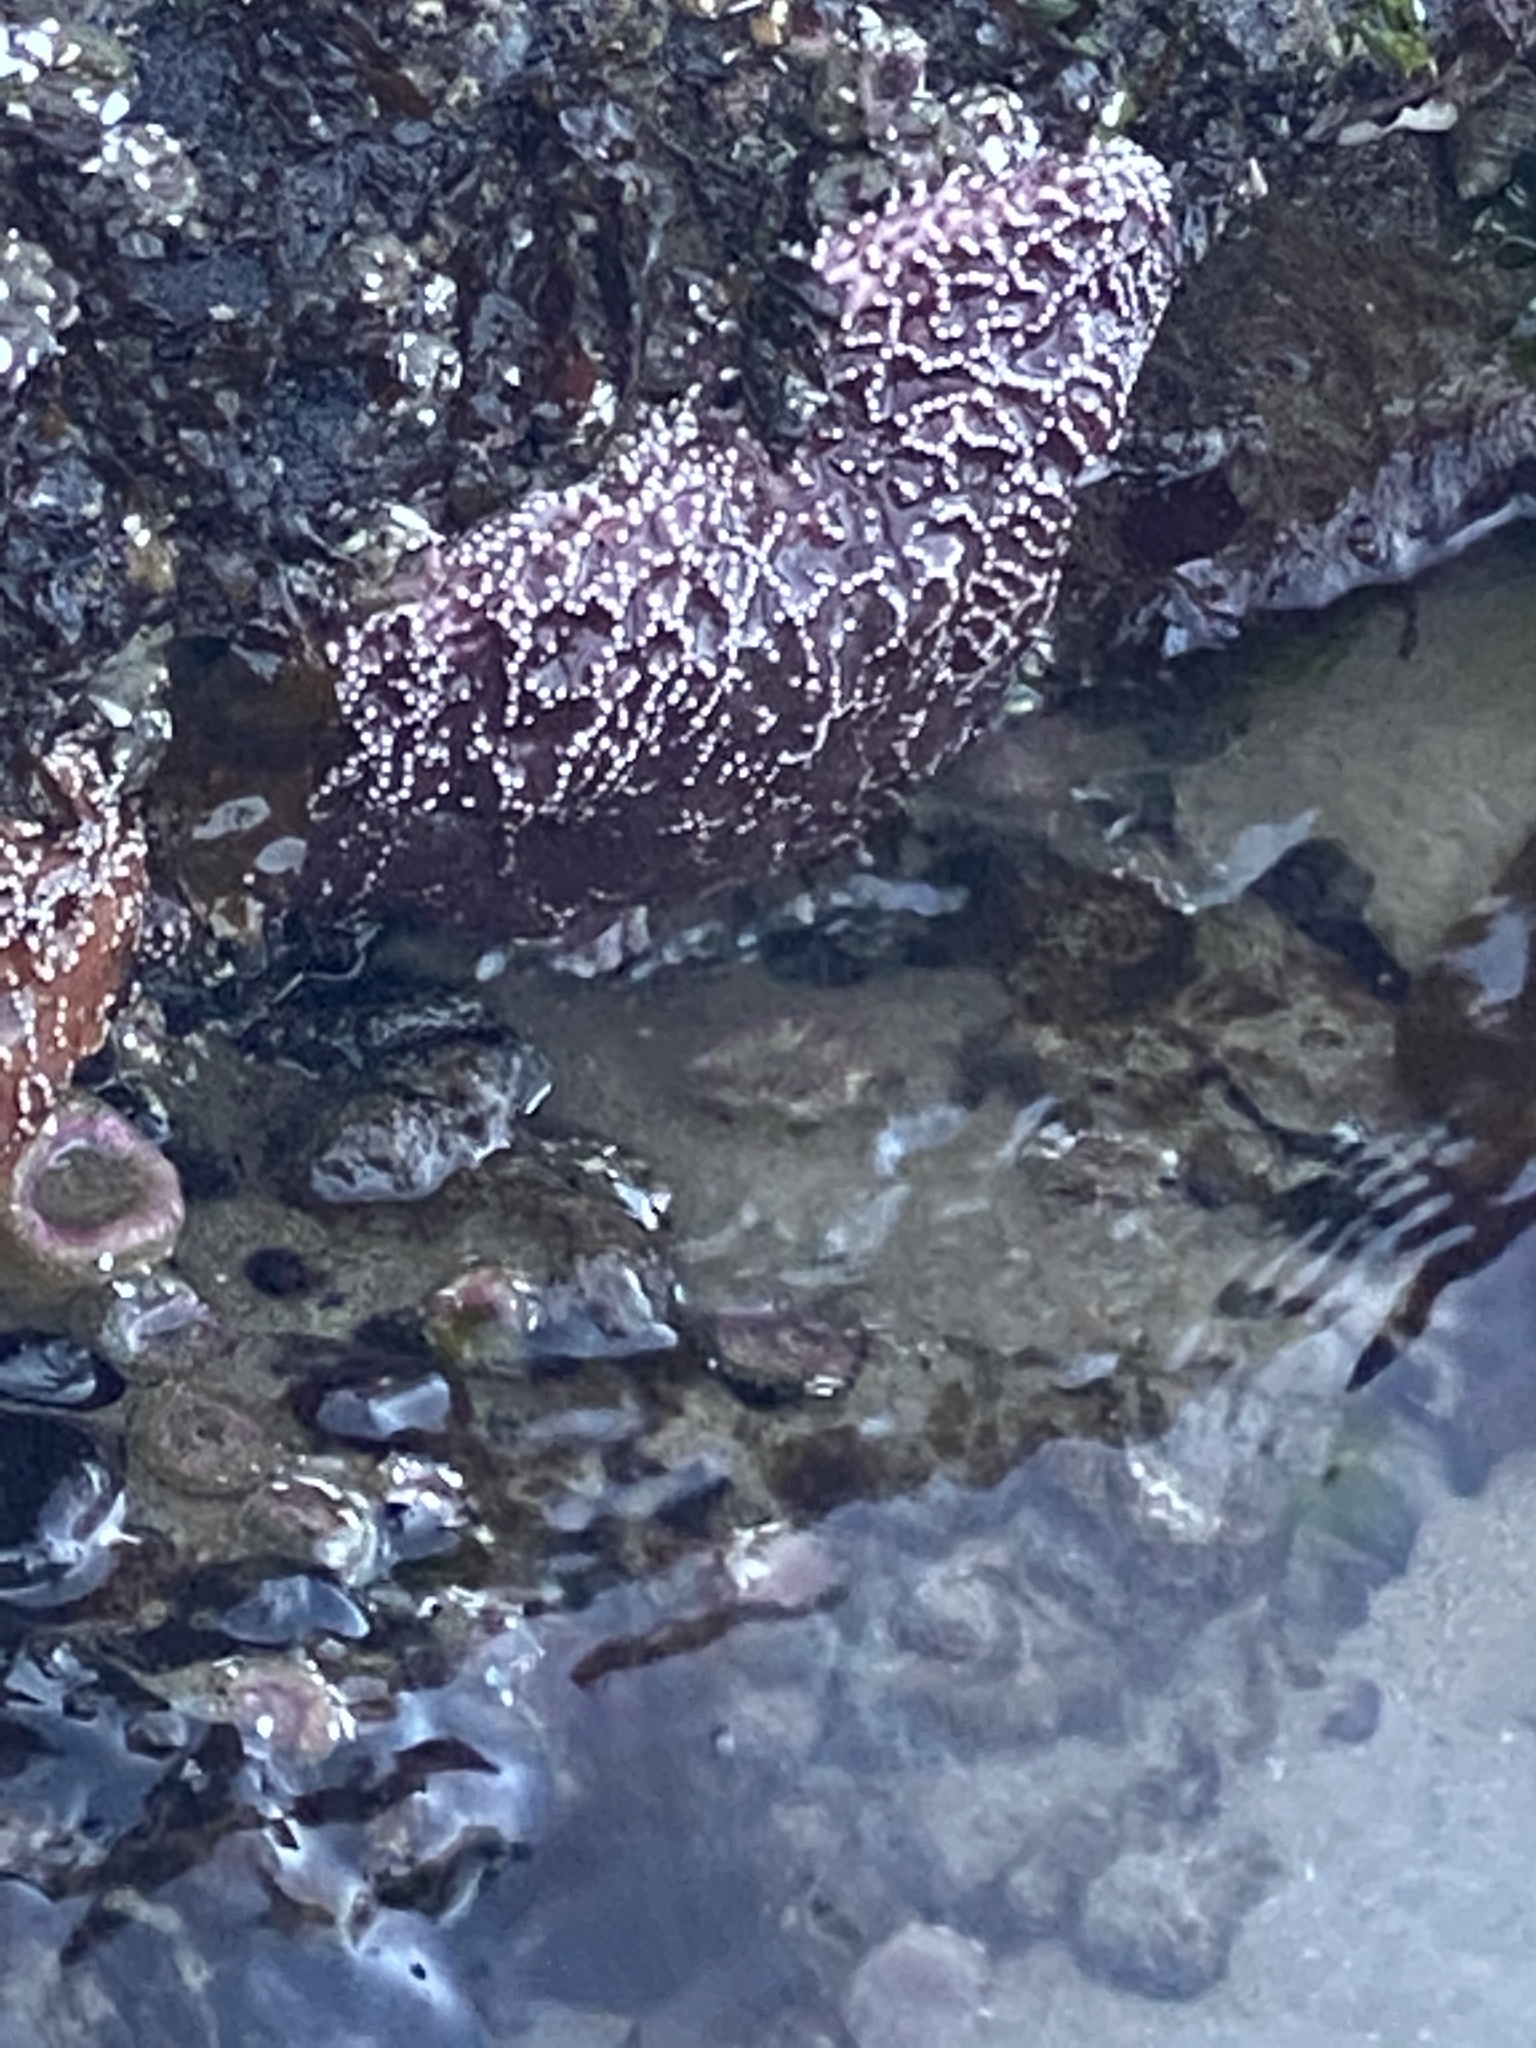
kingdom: Animalia
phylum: Echinodermata
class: Asteroidea
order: Forcipulatida
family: Asteriidae
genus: Pisaster
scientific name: Pisaster ochraceus
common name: Ochre stars
